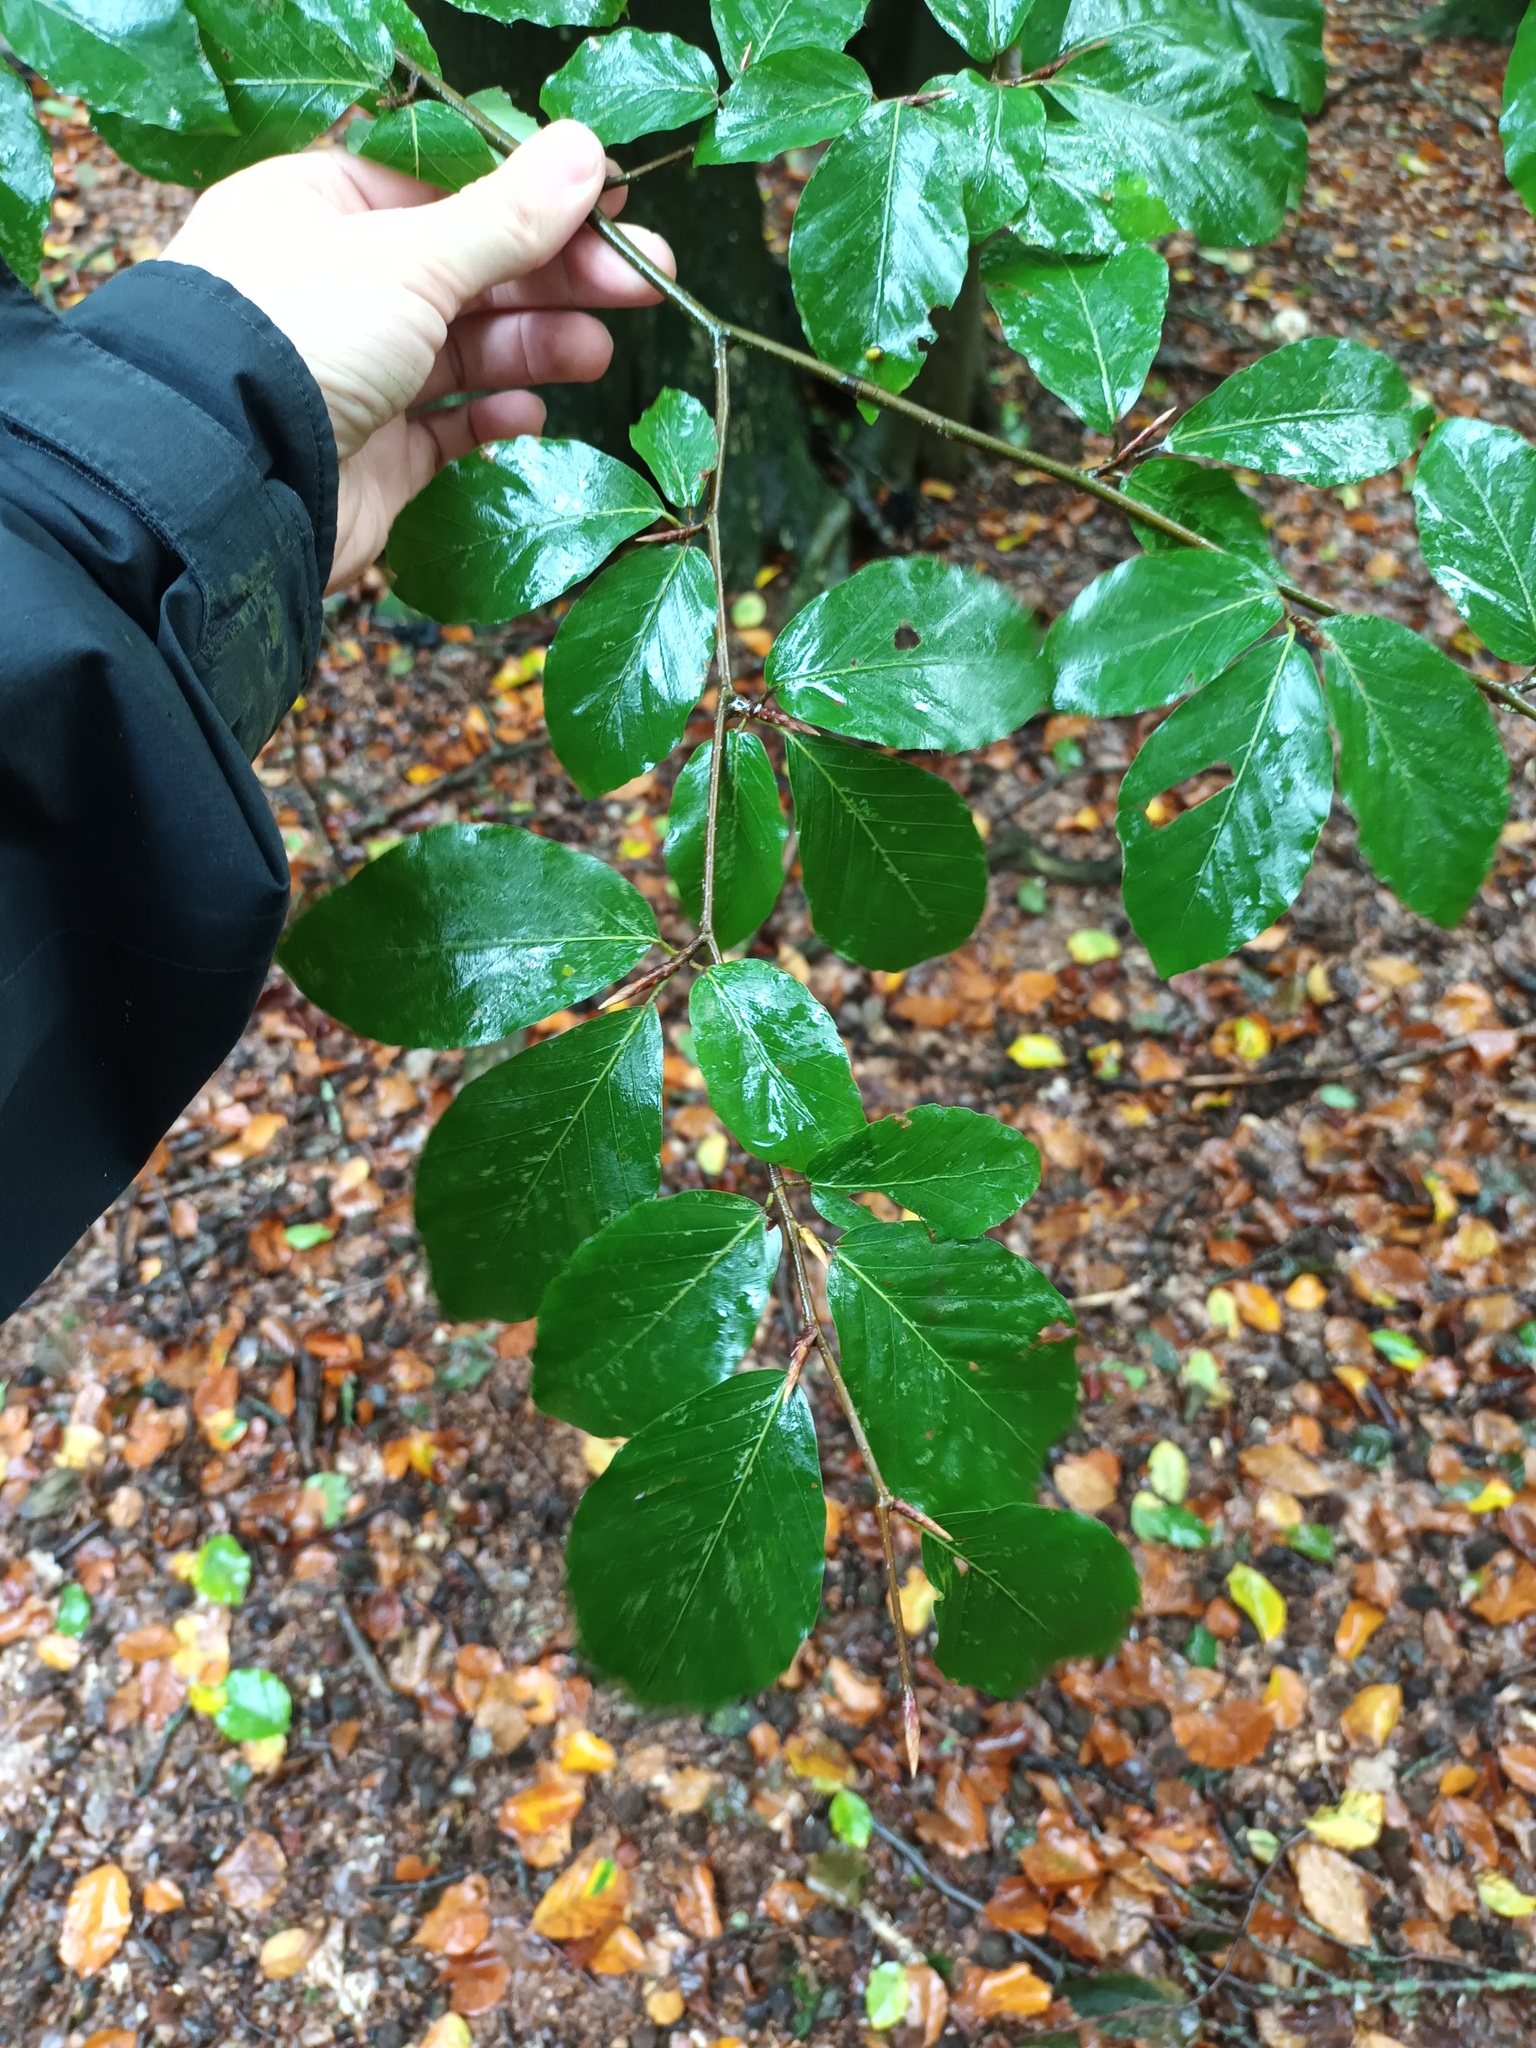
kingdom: Plantae
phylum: Tracheophyta
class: Magnoliopsida
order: Fagales
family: Fagaceae
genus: Fagus
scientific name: Fagus sylvatica
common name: Beech
